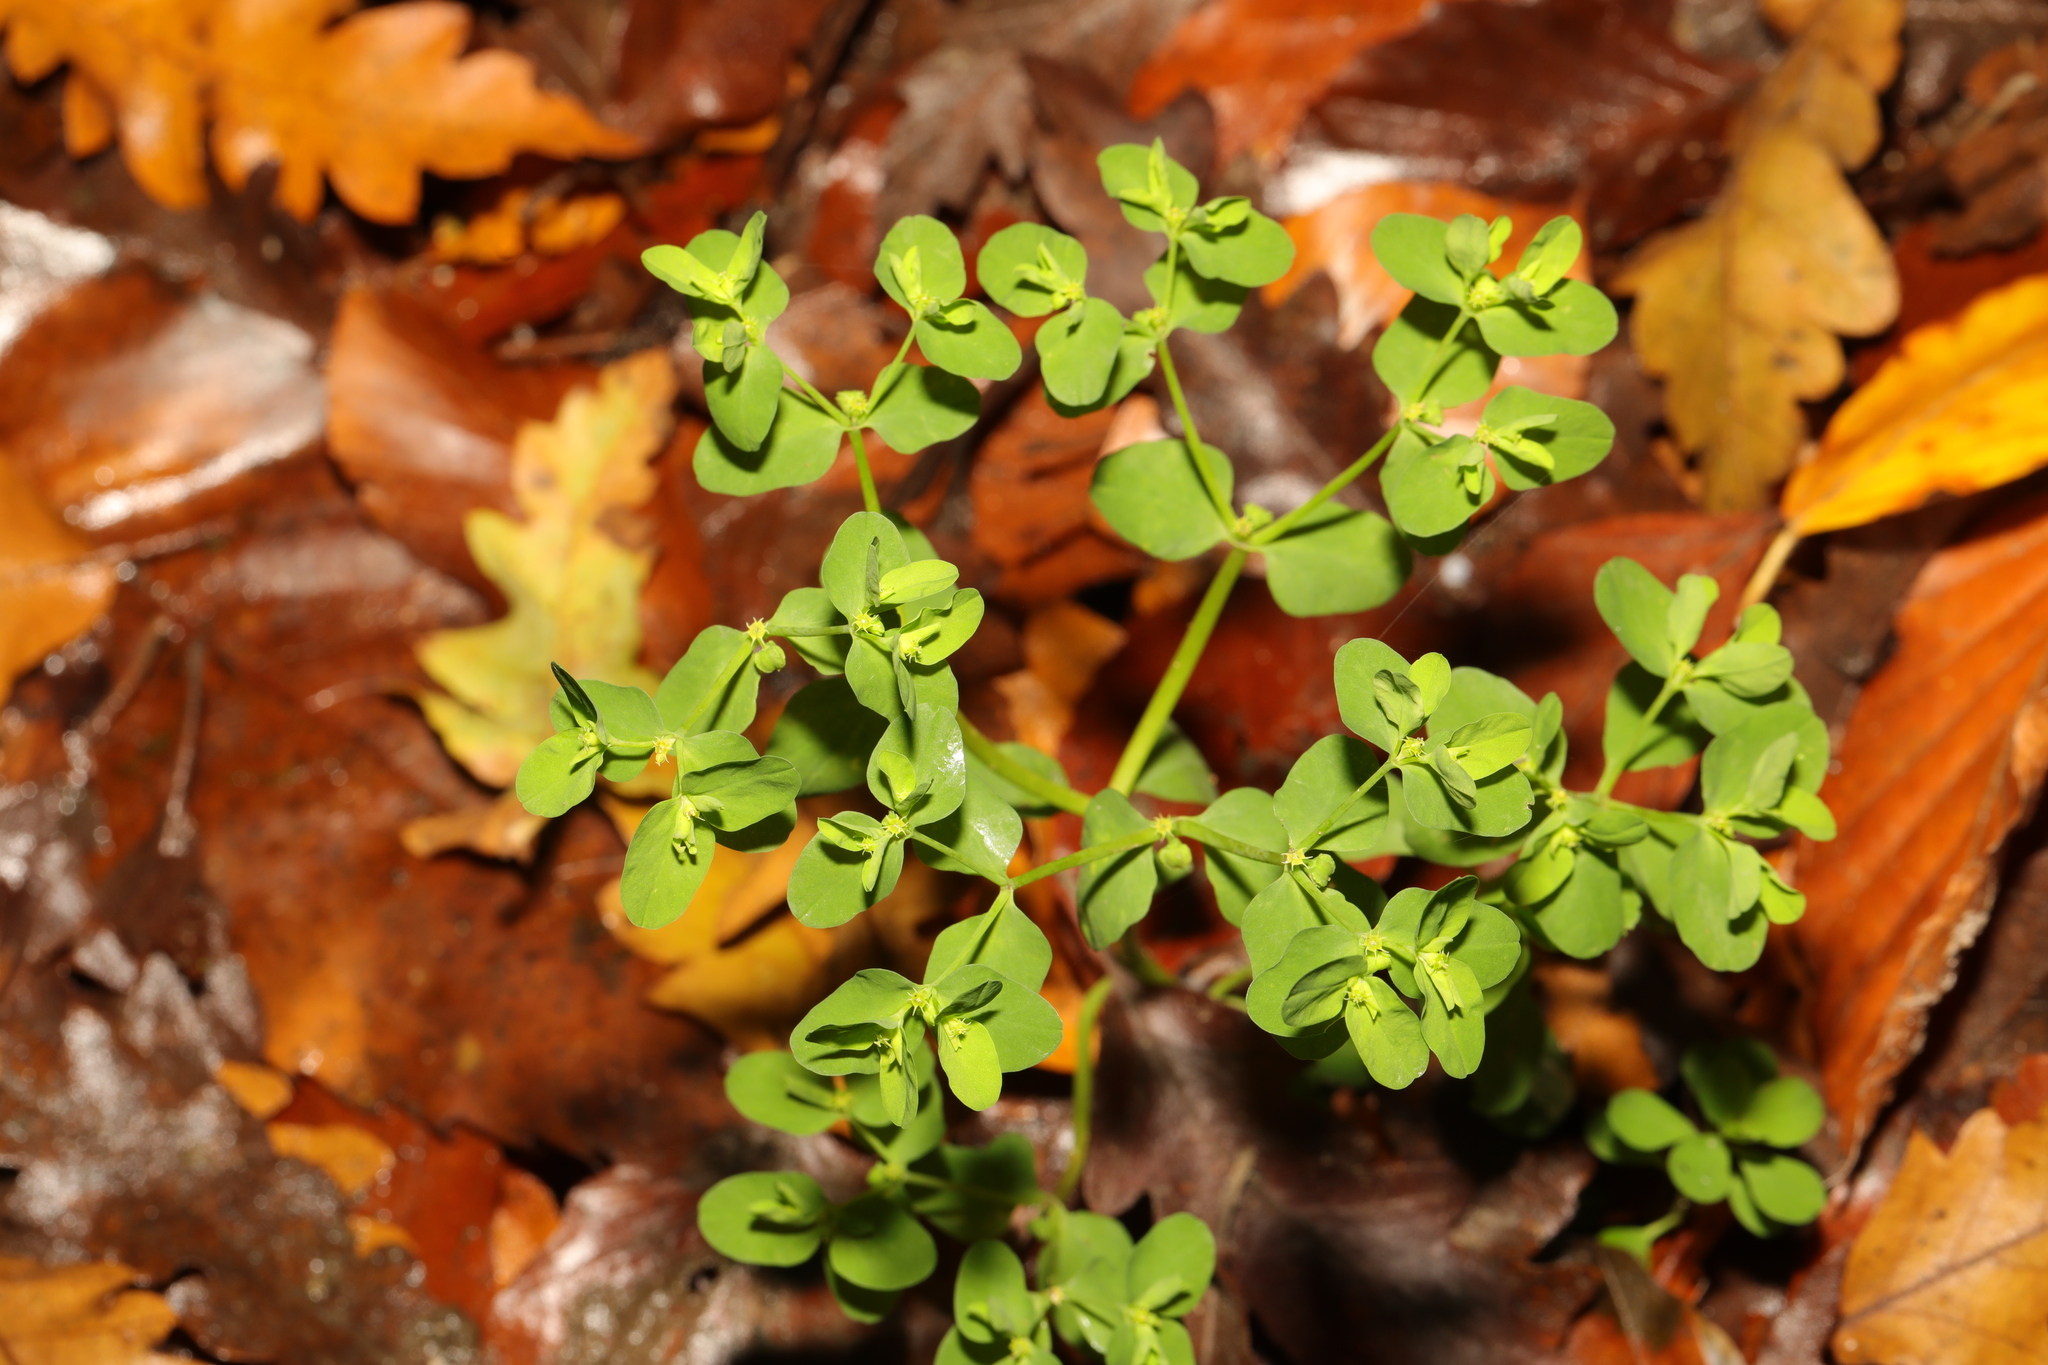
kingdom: Plantae
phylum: Tracheophyta
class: Magnoliopsida
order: Malpighiales
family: Euphorbiaceae
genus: Euphorbia
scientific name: Euphorbia peplus
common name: Petty spurge
